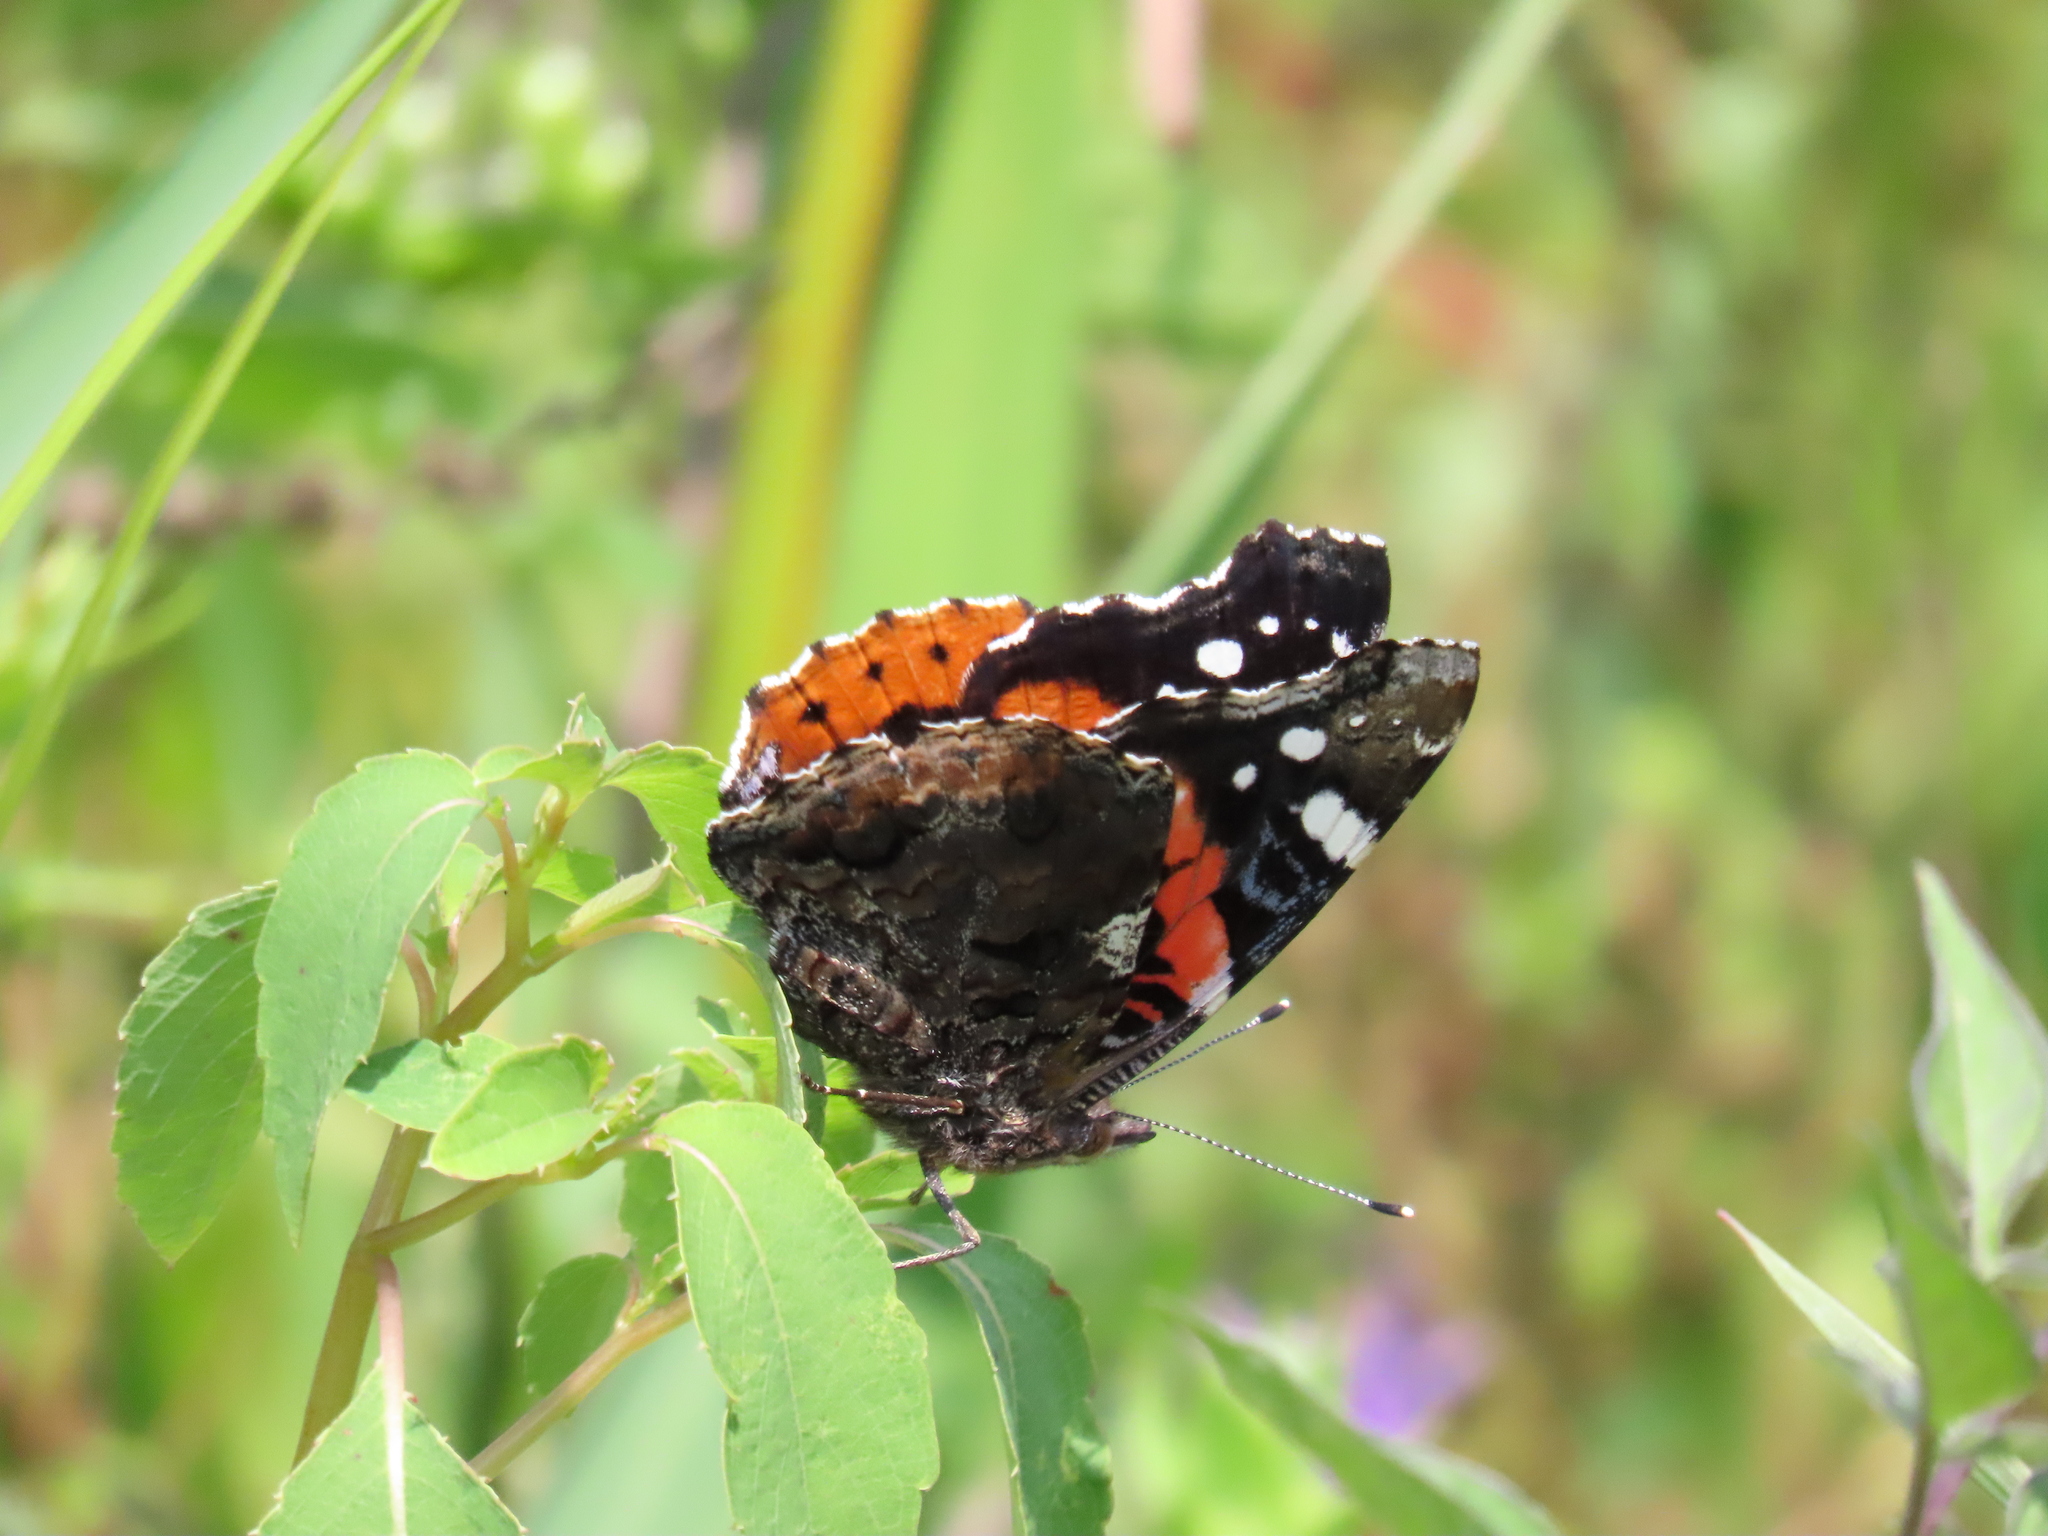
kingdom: Animalia
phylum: Arthropoda
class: Insecta
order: Lepidoptera
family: Nymphalidae
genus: Vanessa
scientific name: Vanessa atalanta
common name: Red admiral
